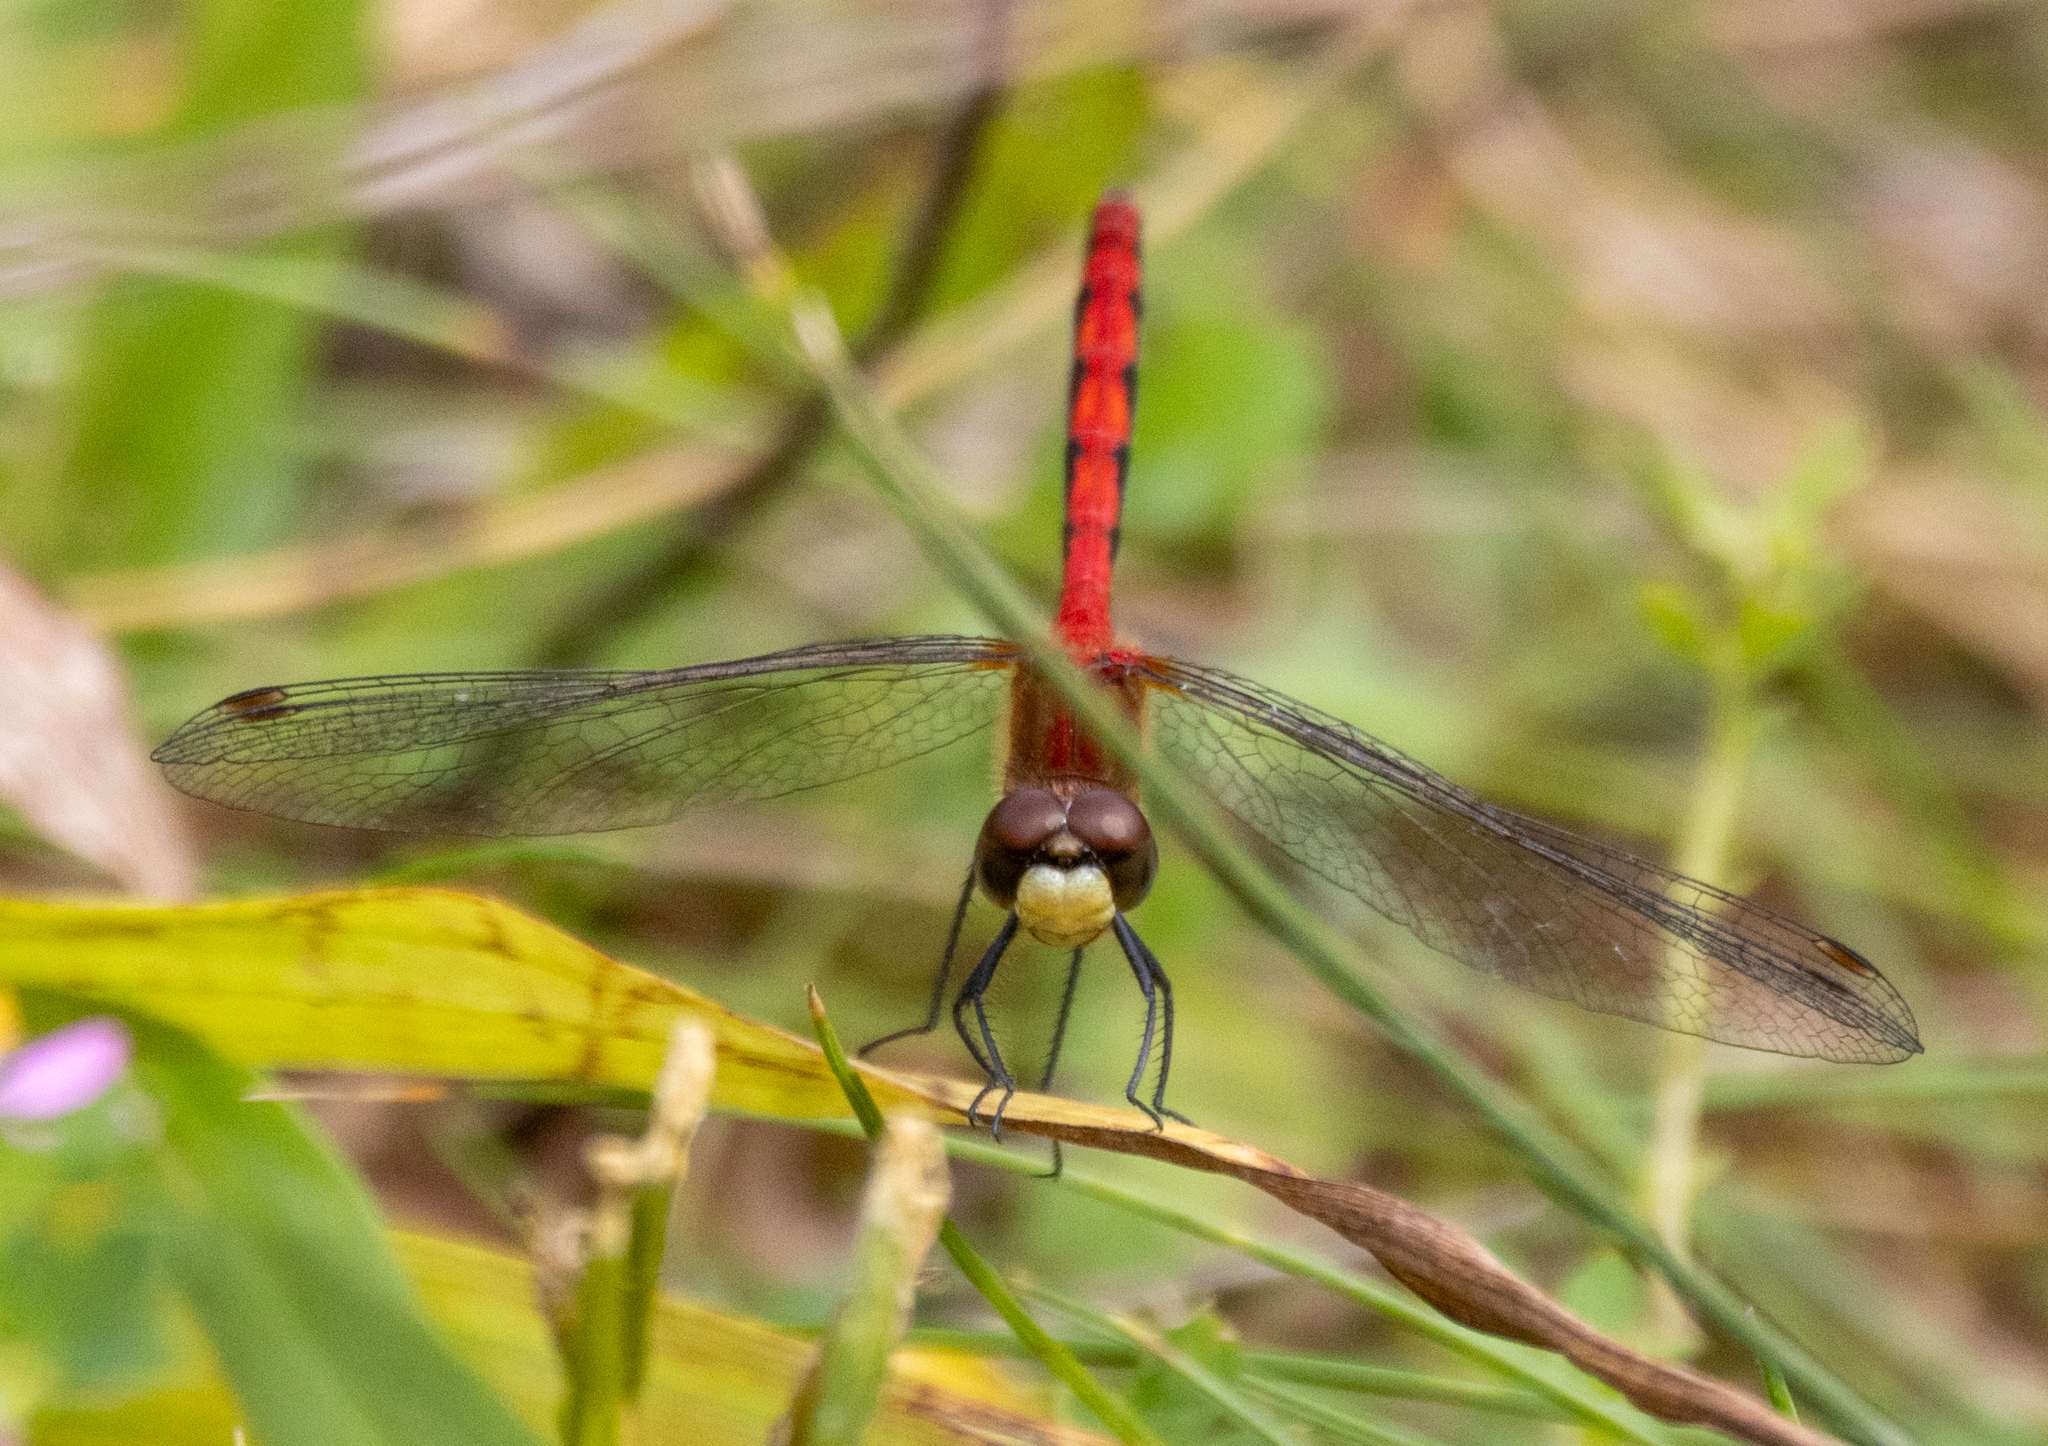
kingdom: Animalia
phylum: Arthropoda
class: Insecta
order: Odonata
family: Libellulidae
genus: Sympetrum
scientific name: Sympetrum obtrusum
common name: White-faced meadowhawk
